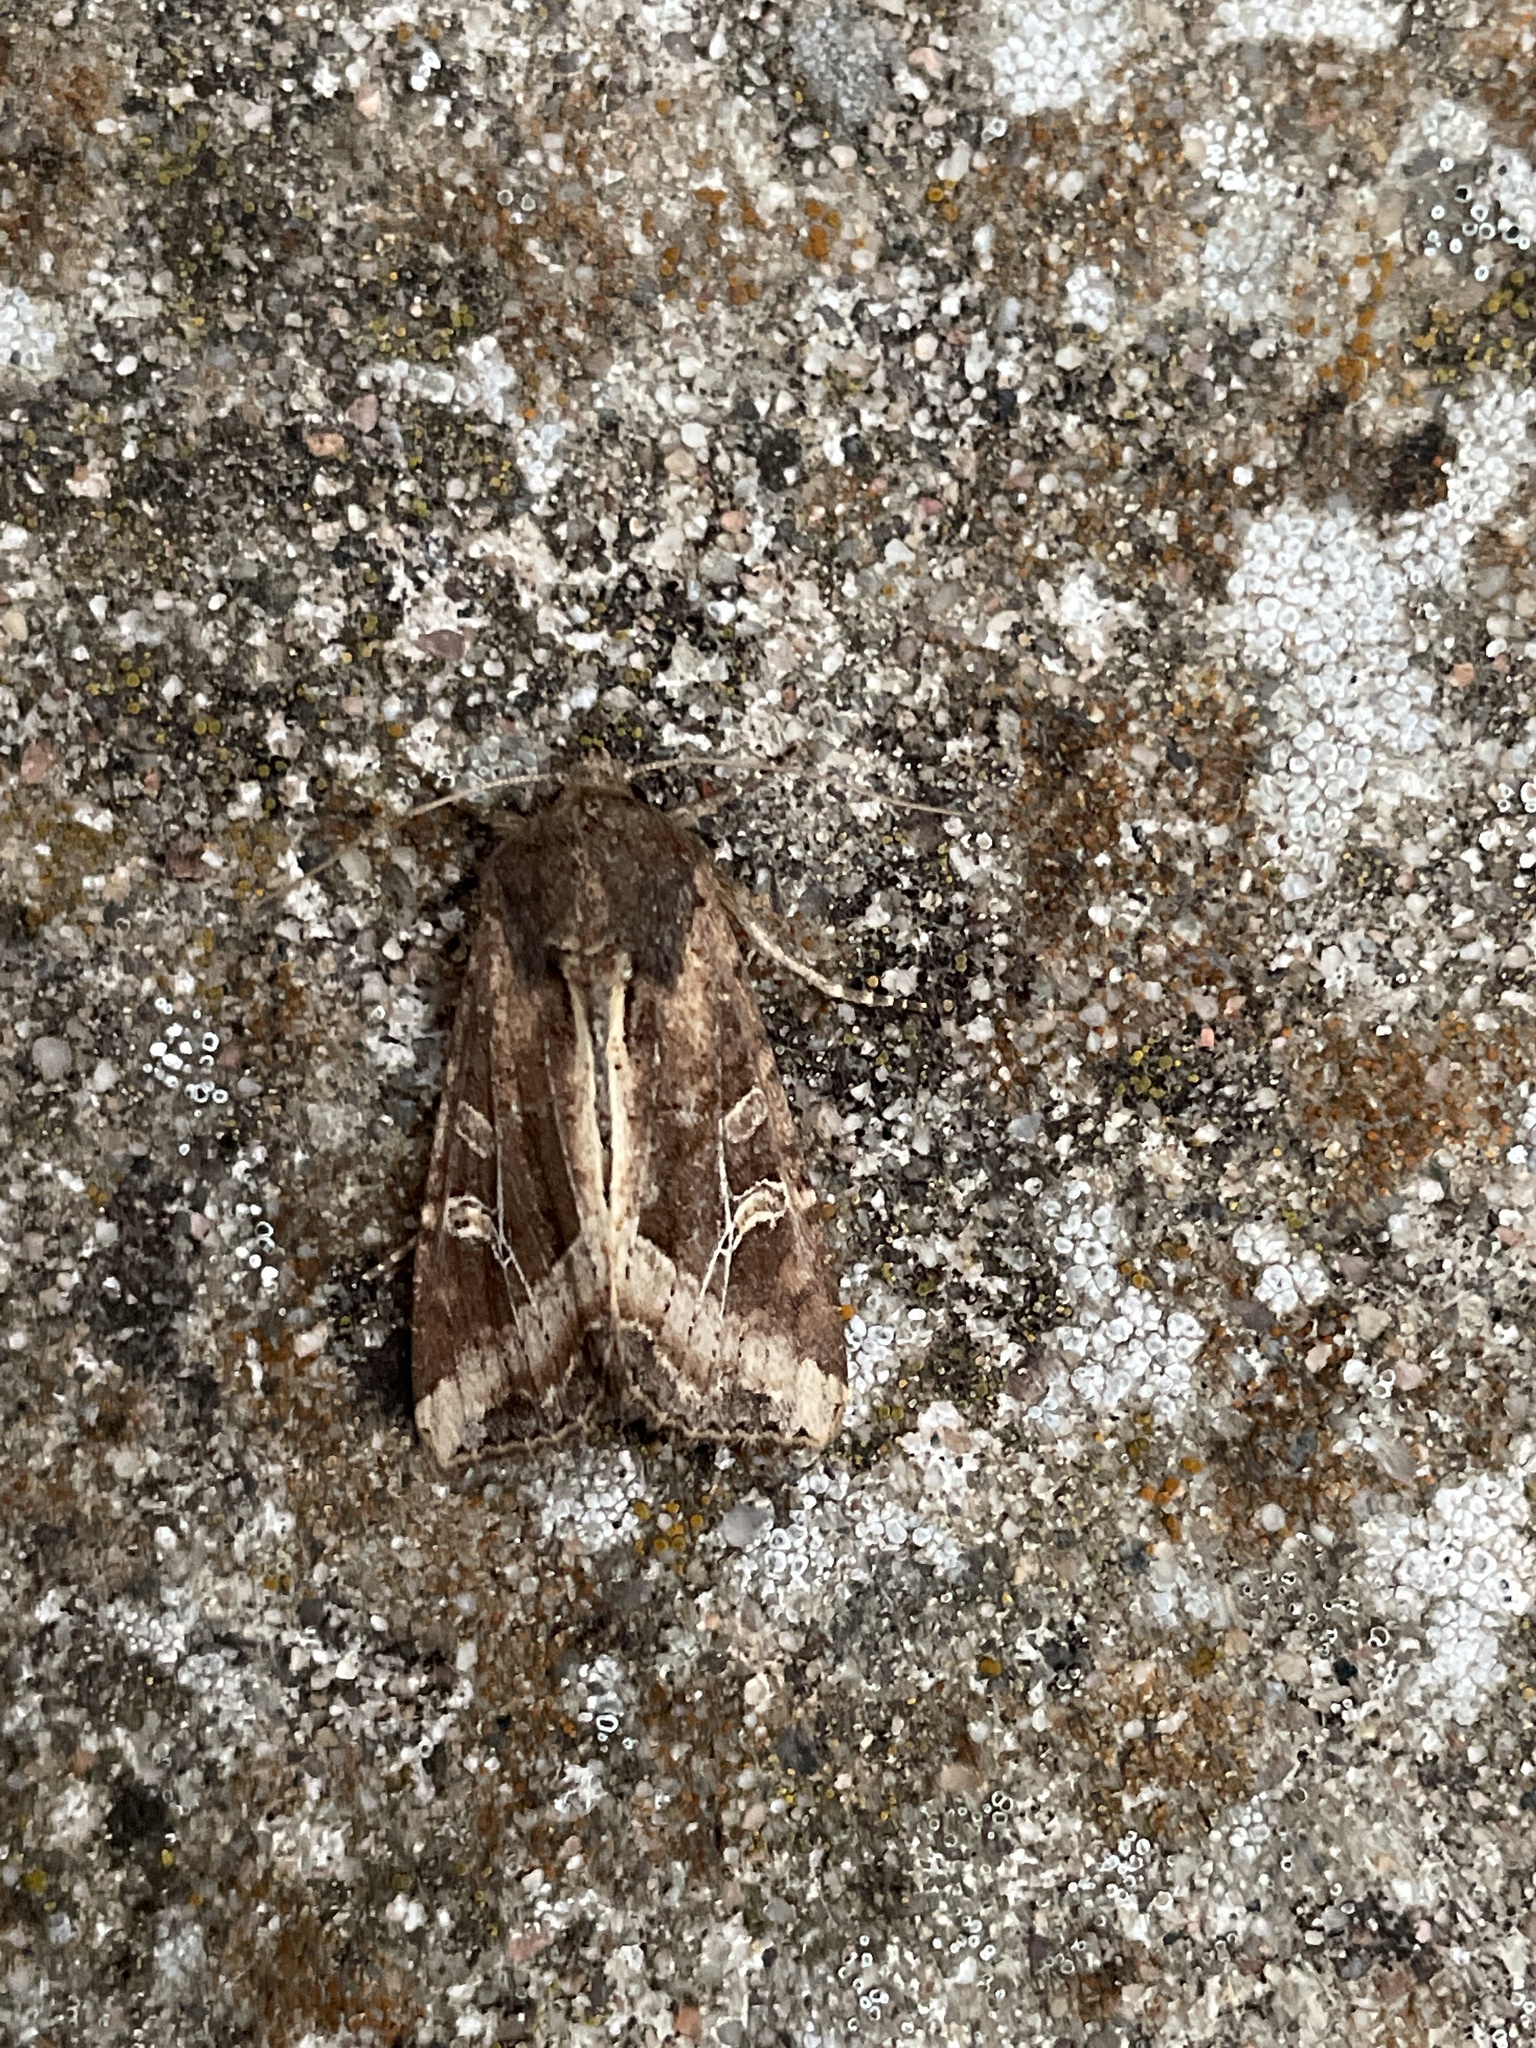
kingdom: Animalia
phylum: Arthropoda
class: Insecta
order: Lepidoptera
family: Noctuidae
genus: Helotropha
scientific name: Helotropha leucostigma
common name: The crescent
